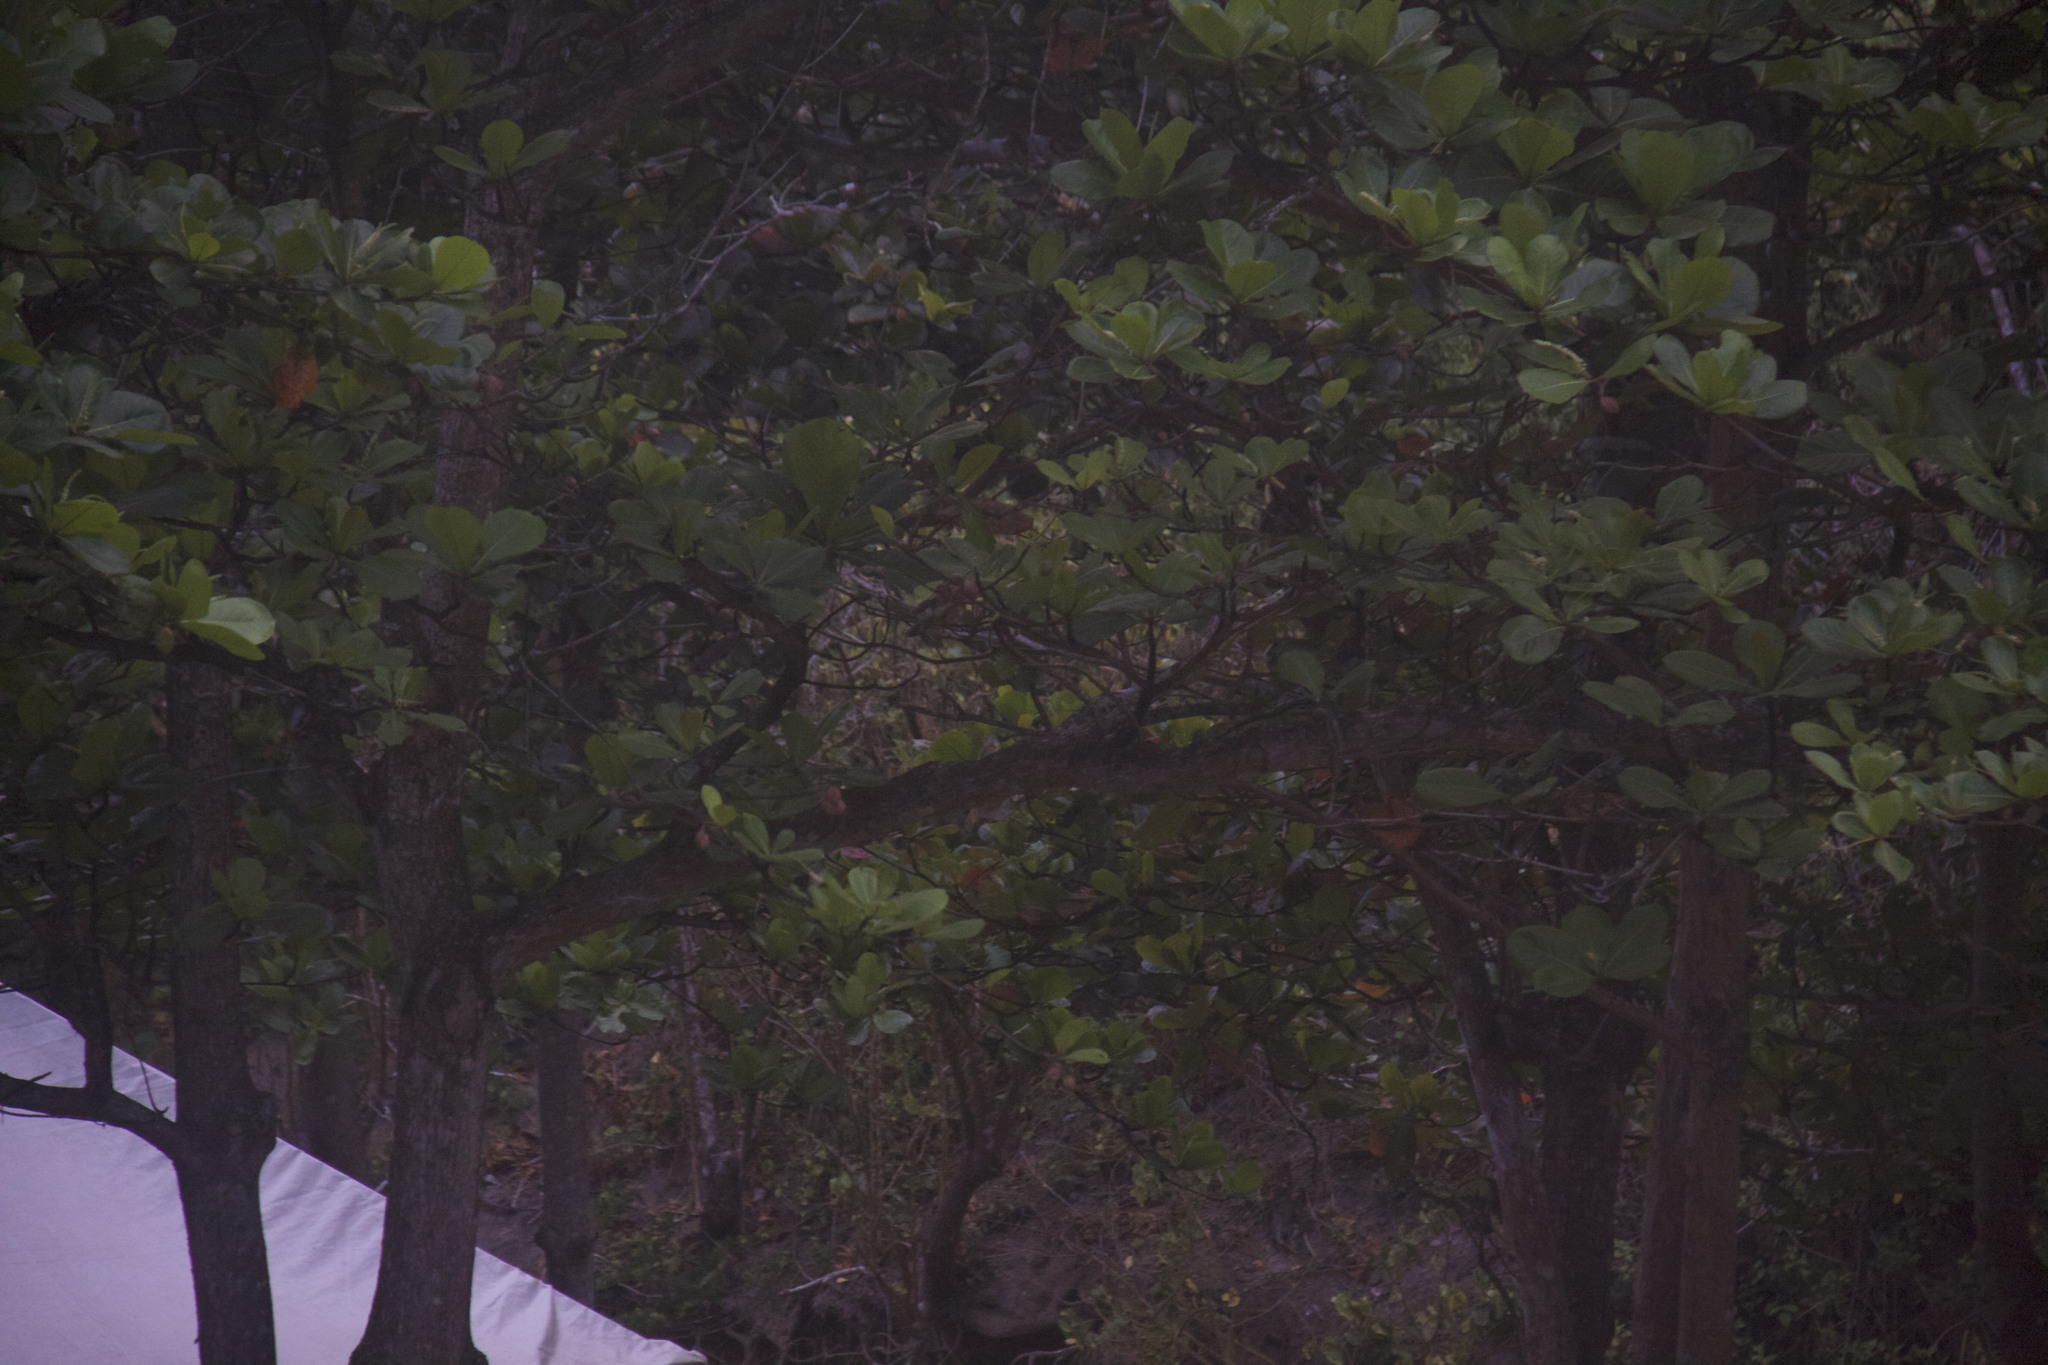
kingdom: Plantae
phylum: Tracheophyta
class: Magnoliopsida
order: Myrtales
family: Combretaceae
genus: Terminalia
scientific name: Terminalia catappa
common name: Tropical almond
